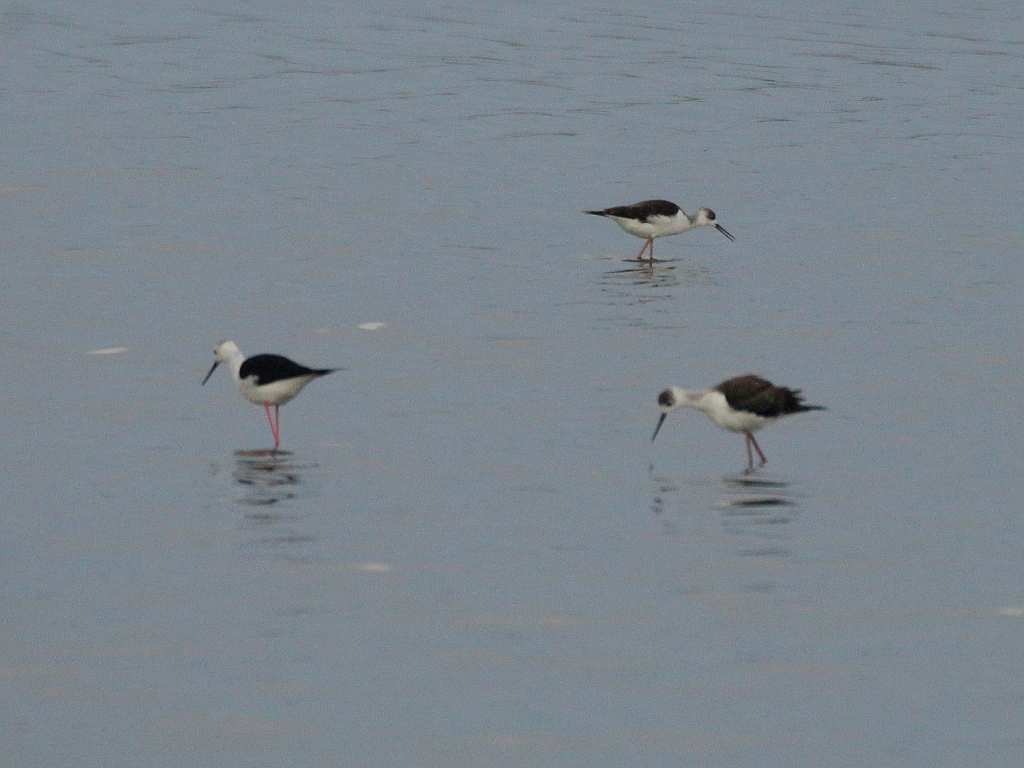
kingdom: Animalia
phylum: Chordata
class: Aves
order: Charadriiformes
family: Recurvirostridae
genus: Himantopus
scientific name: Himantopus himantopus
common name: Black-winged stilt
